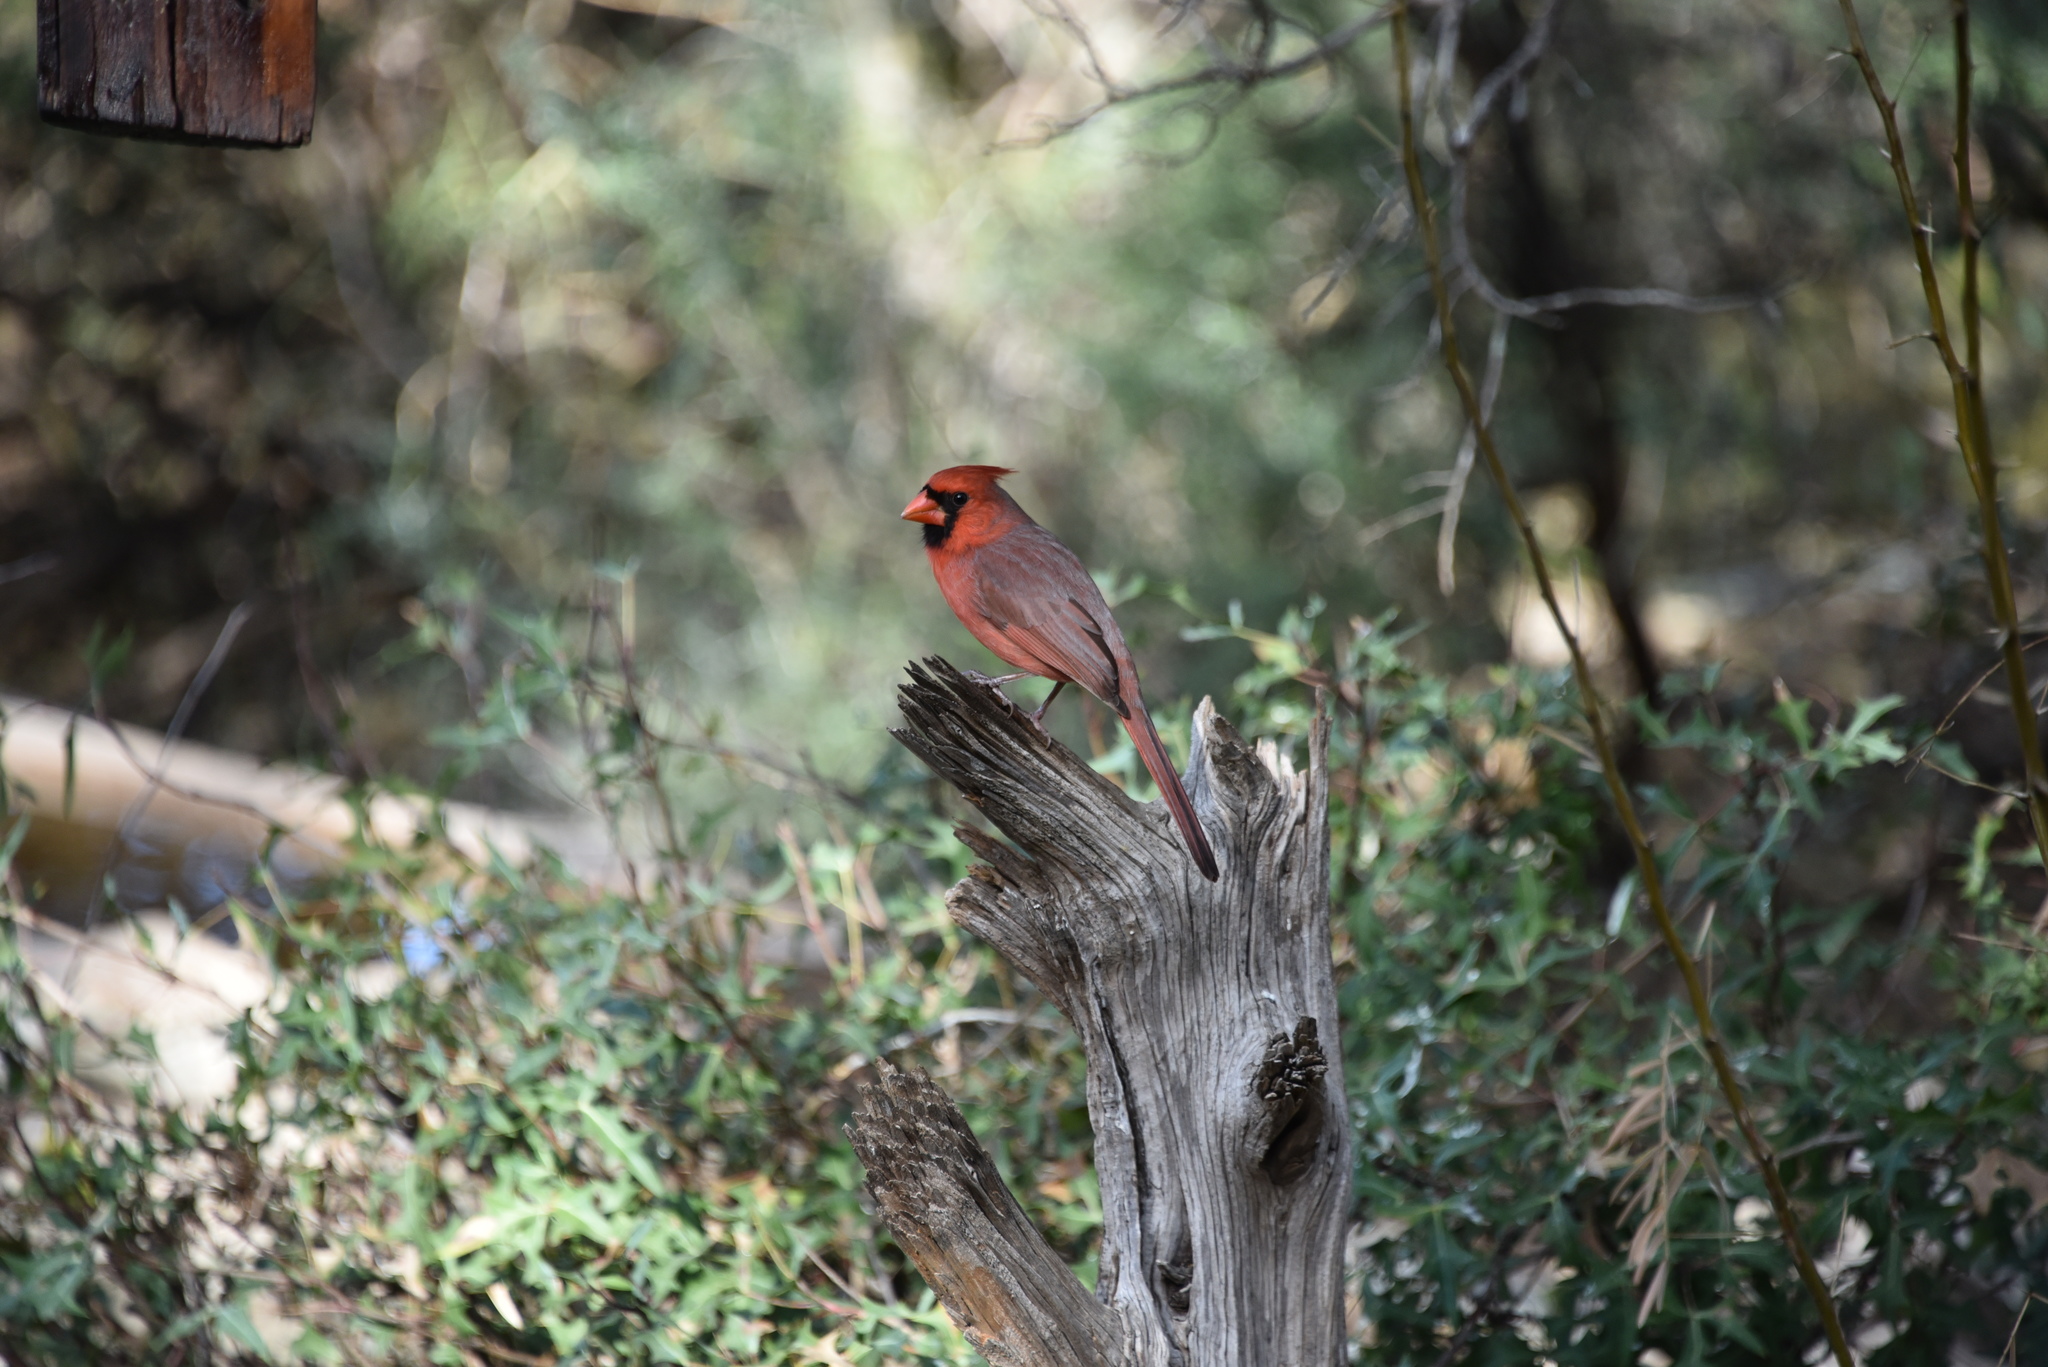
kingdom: Animalia
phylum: Chordata
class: Aves
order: Passeriformes
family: Cardinalidae
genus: Cardinalis
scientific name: Cardinalis cardinalis
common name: Northern cardinal
